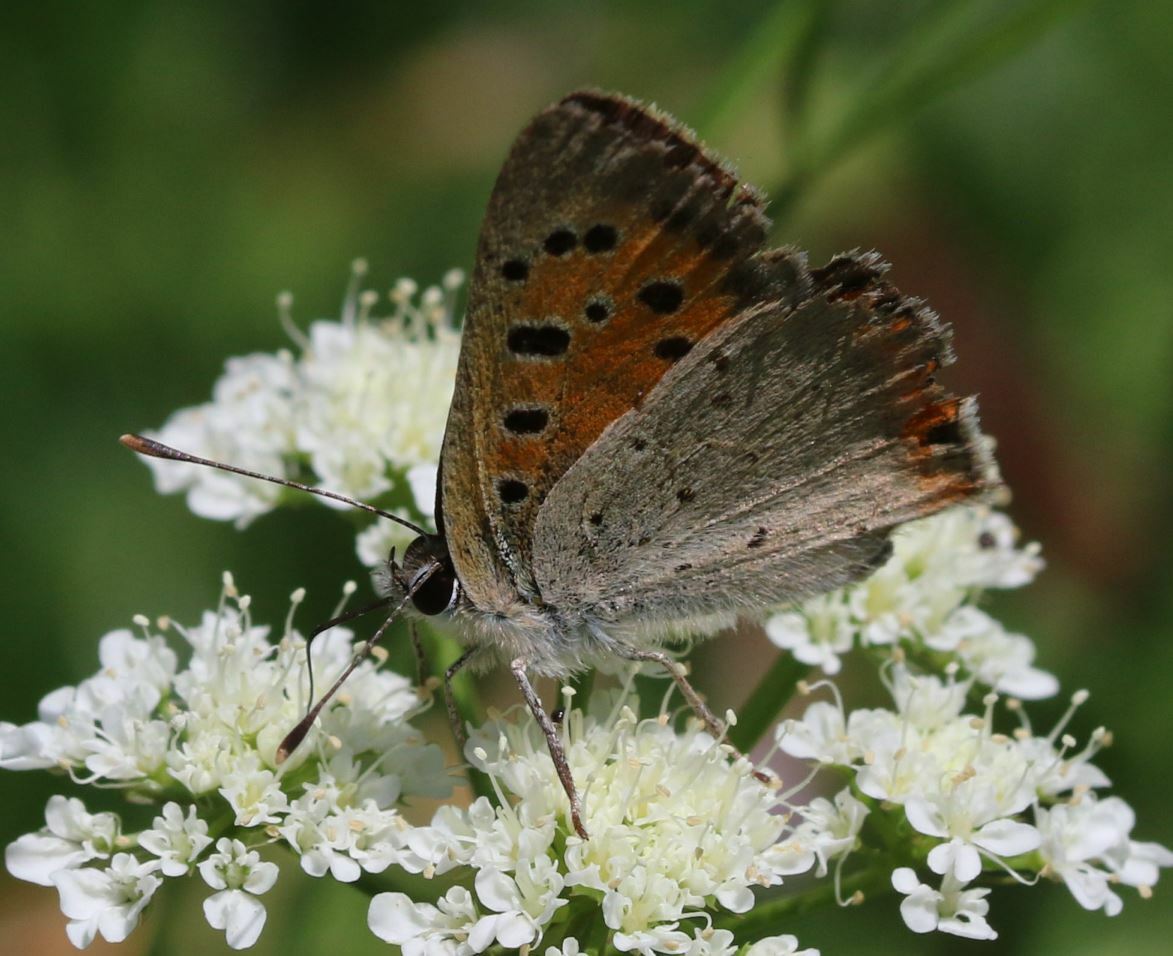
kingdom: Animalia
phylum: Arthropoda
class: Insecta
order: Lepidoptera
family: Lycaenidae
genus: Lycaena
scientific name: Lycaena phlaeas
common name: Small copper
